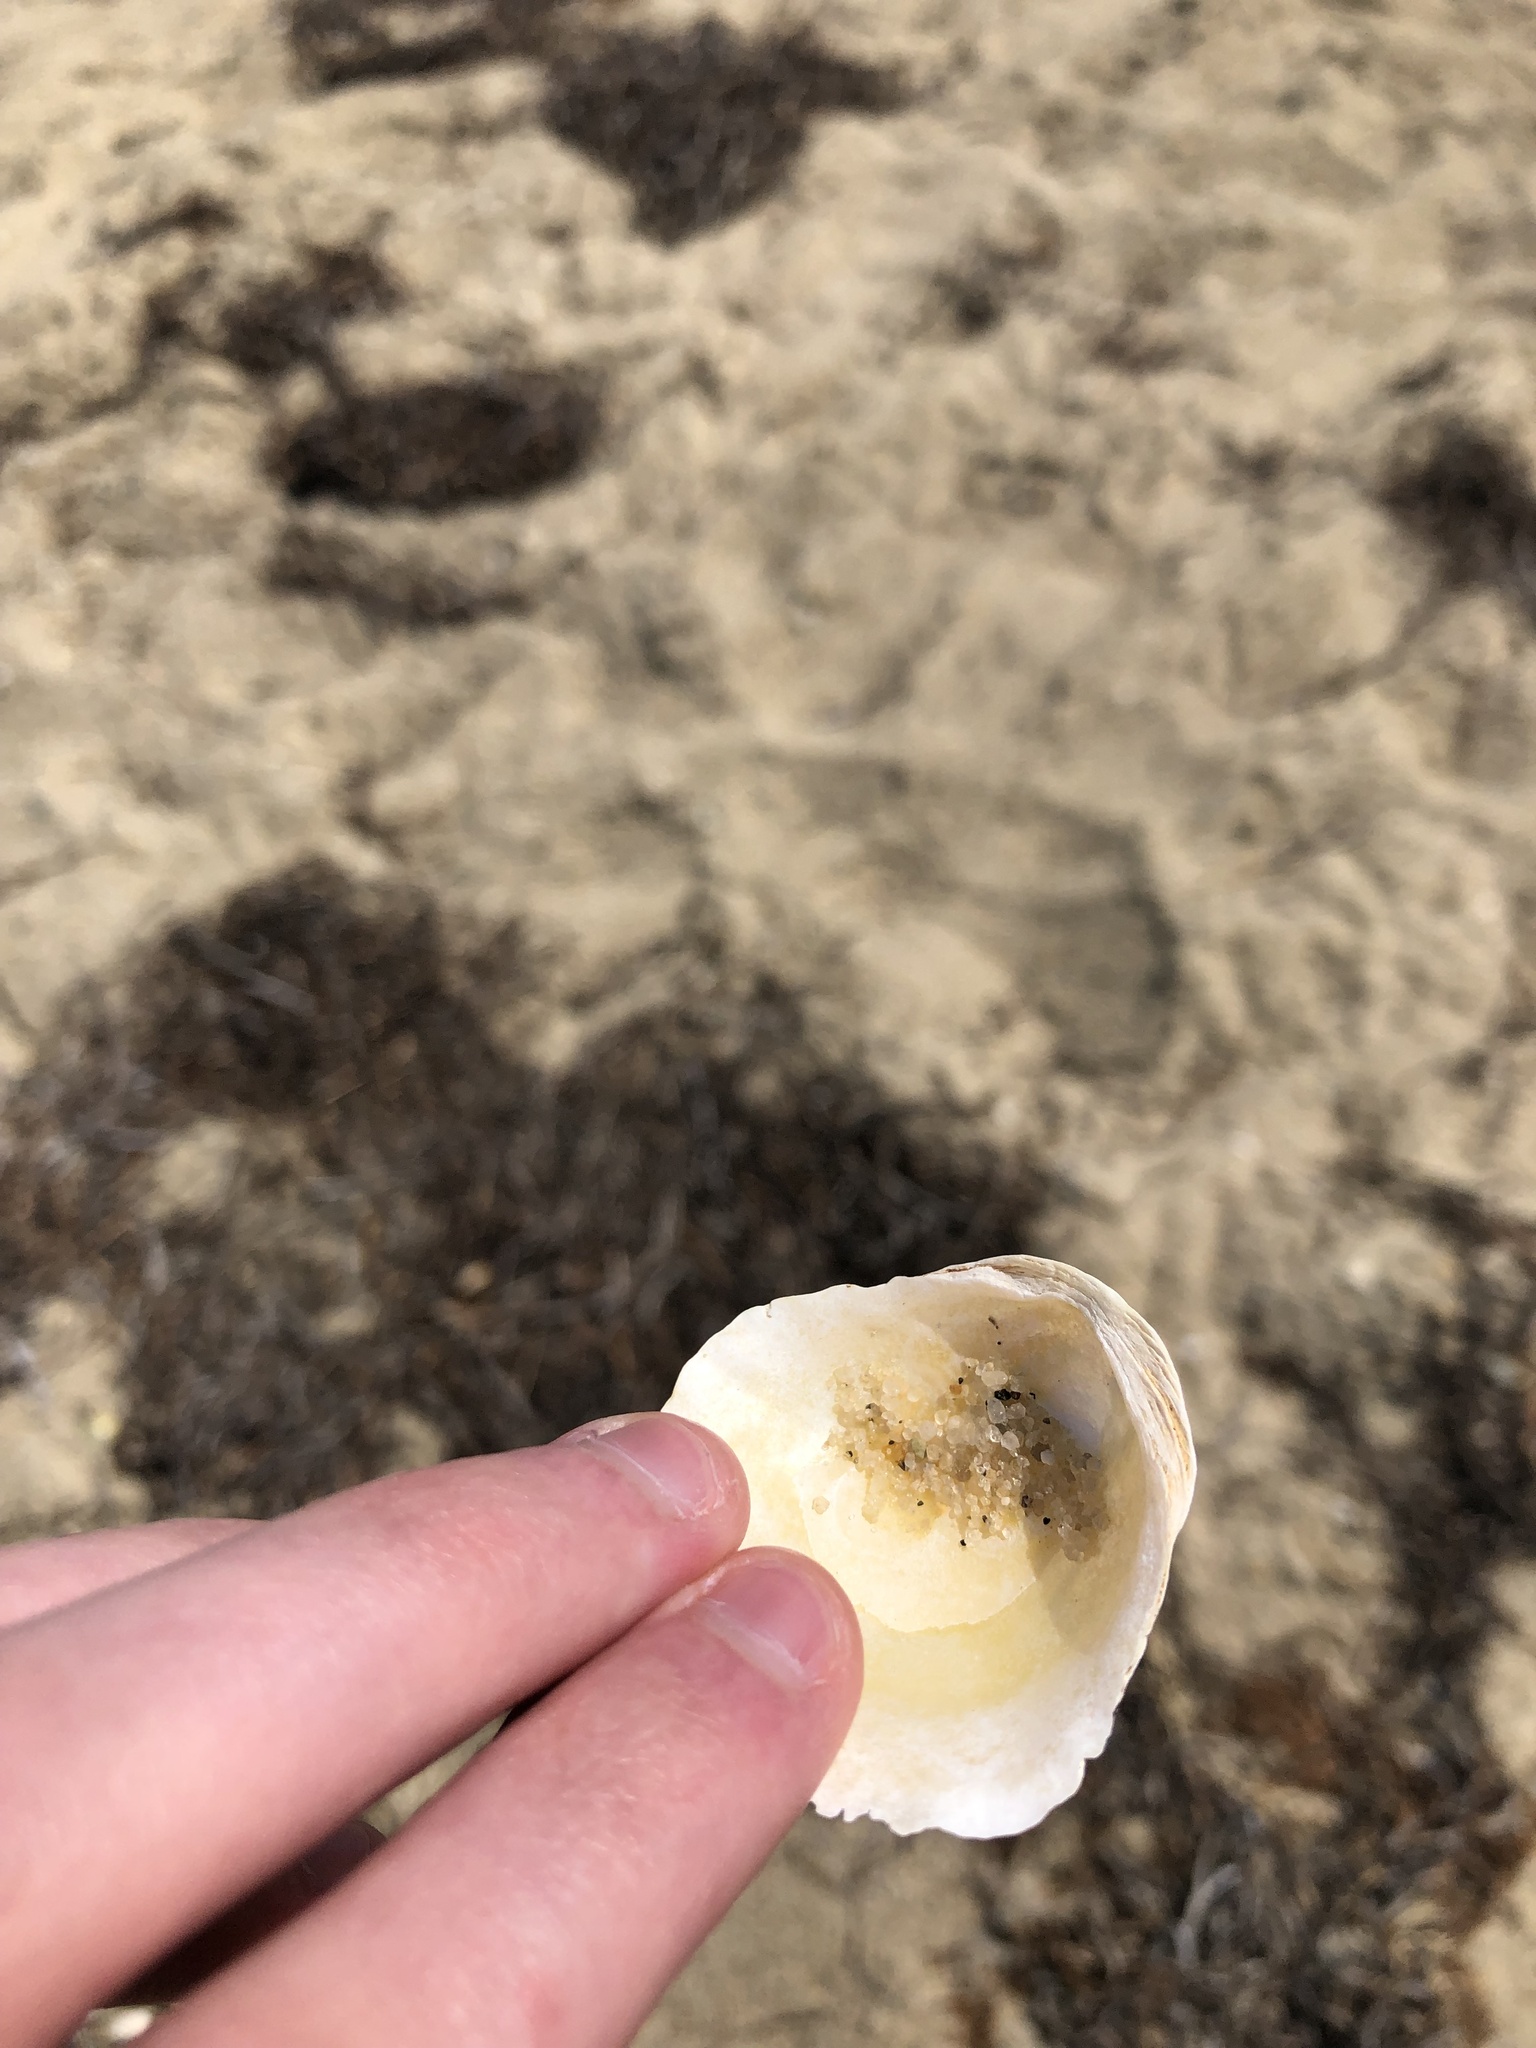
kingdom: Animalia
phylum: Mollusca
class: Bivalvia
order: Pectinida
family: Anomiidae
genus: Anomia
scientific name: Anomia simplex
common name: Common jingle shell
